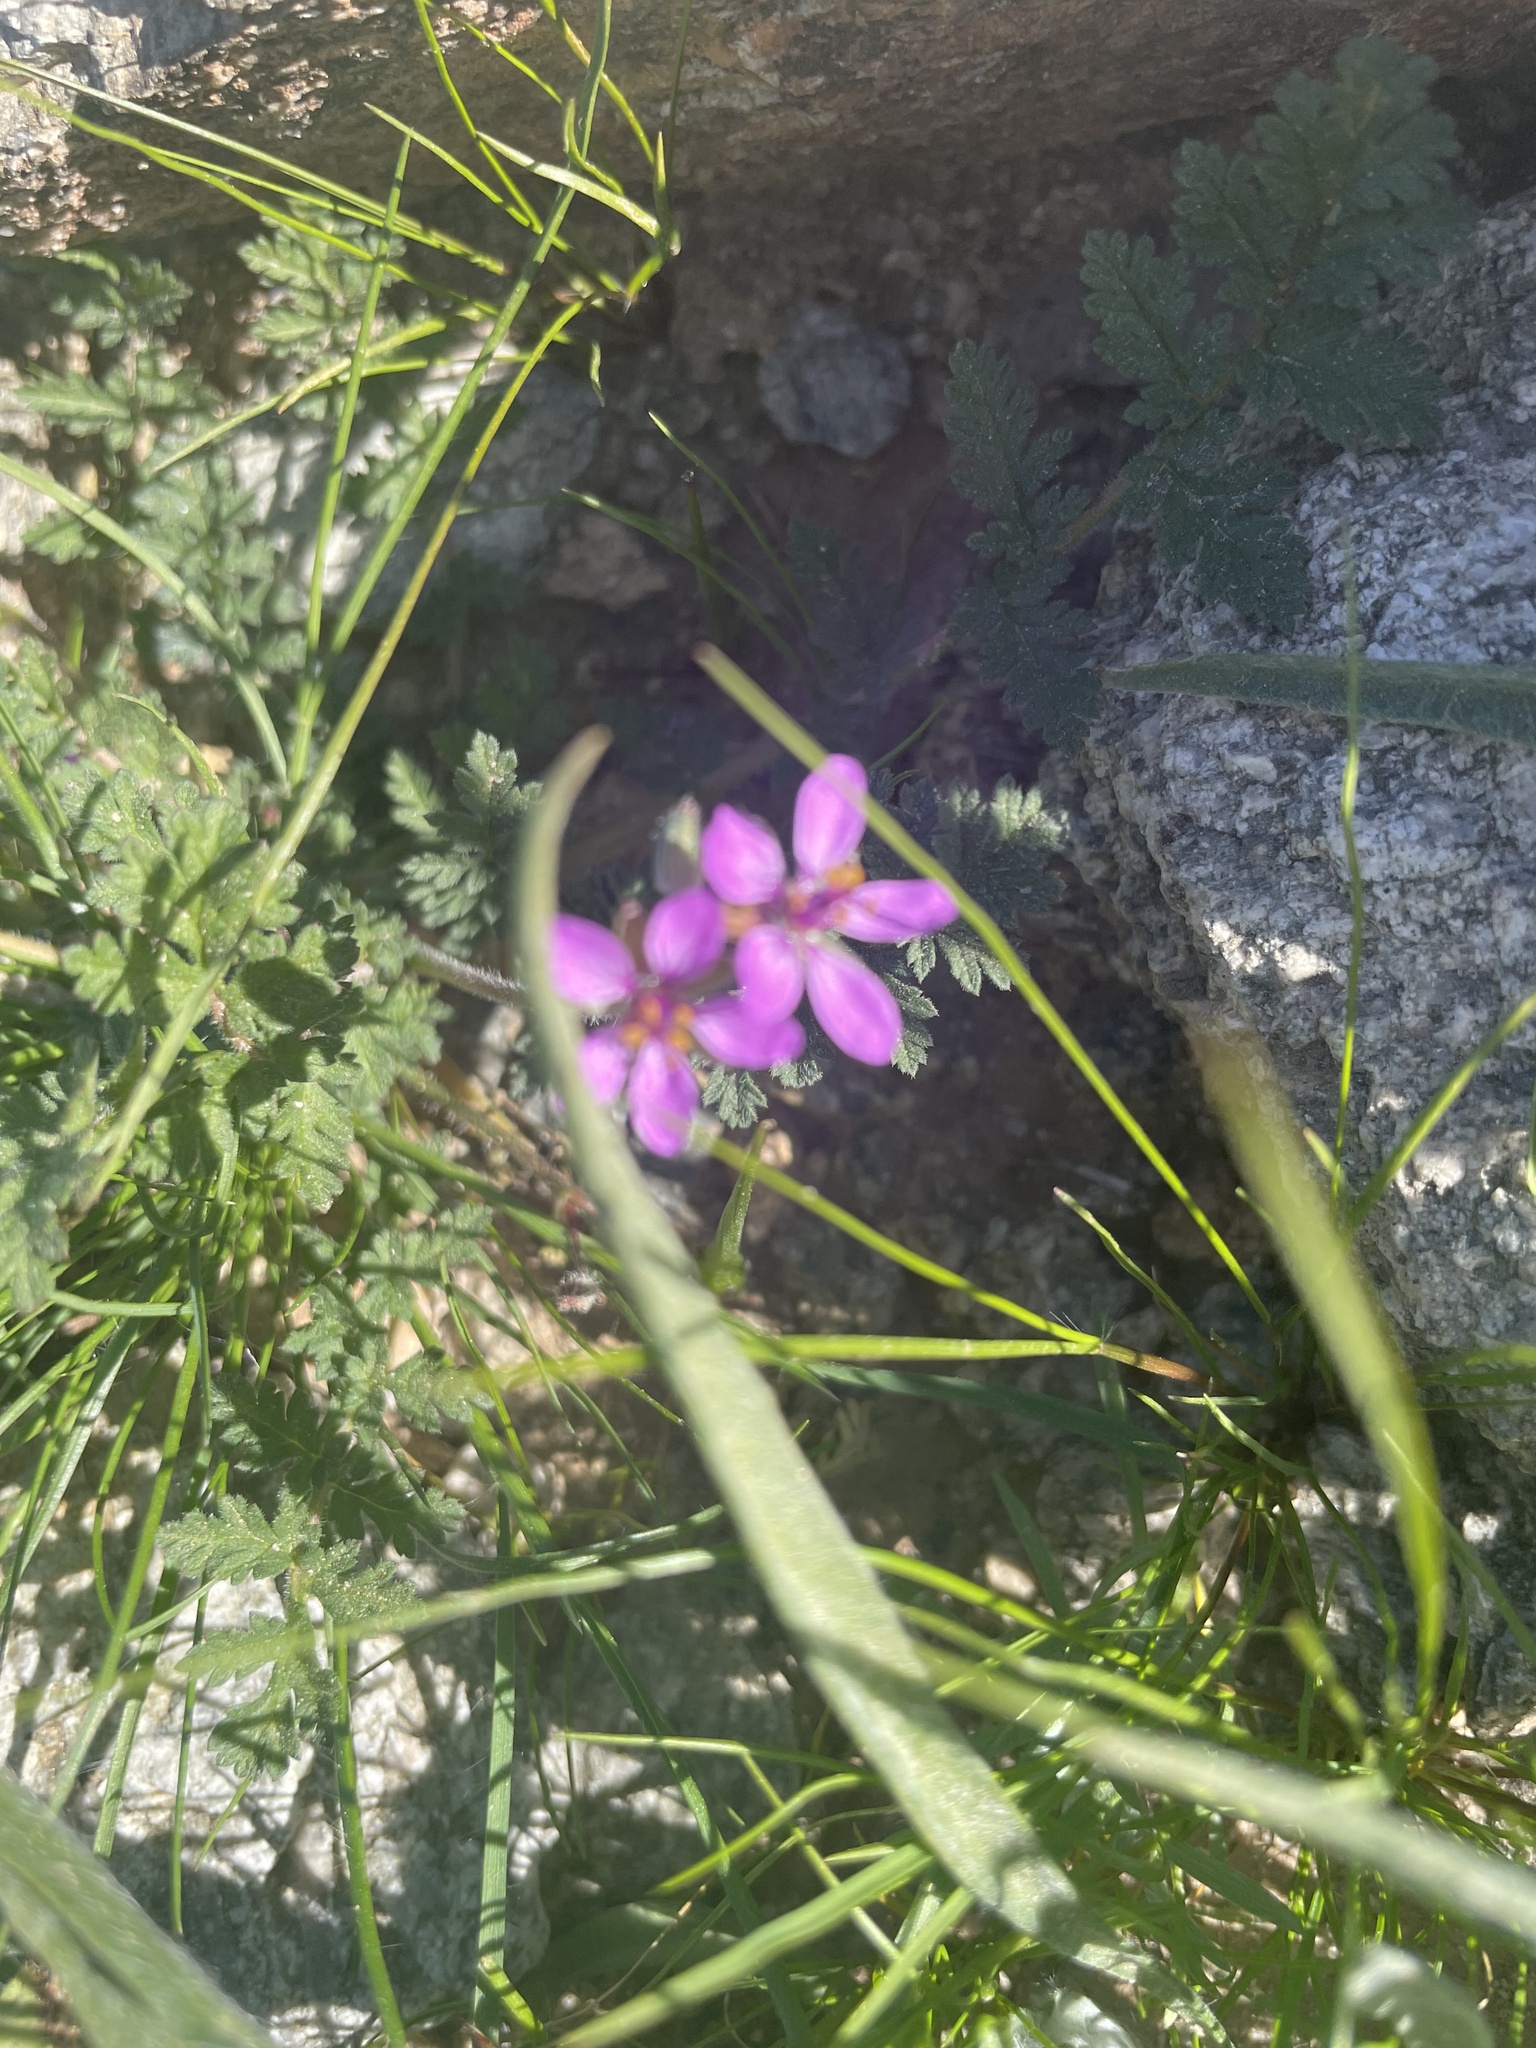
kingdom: Plantae
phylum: Tracheophyta
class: Magnoliopsida
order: Geraniales
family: Geraniaceae
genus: Erodium
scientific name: Erodium cicutarium
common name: Common stork's-bill
